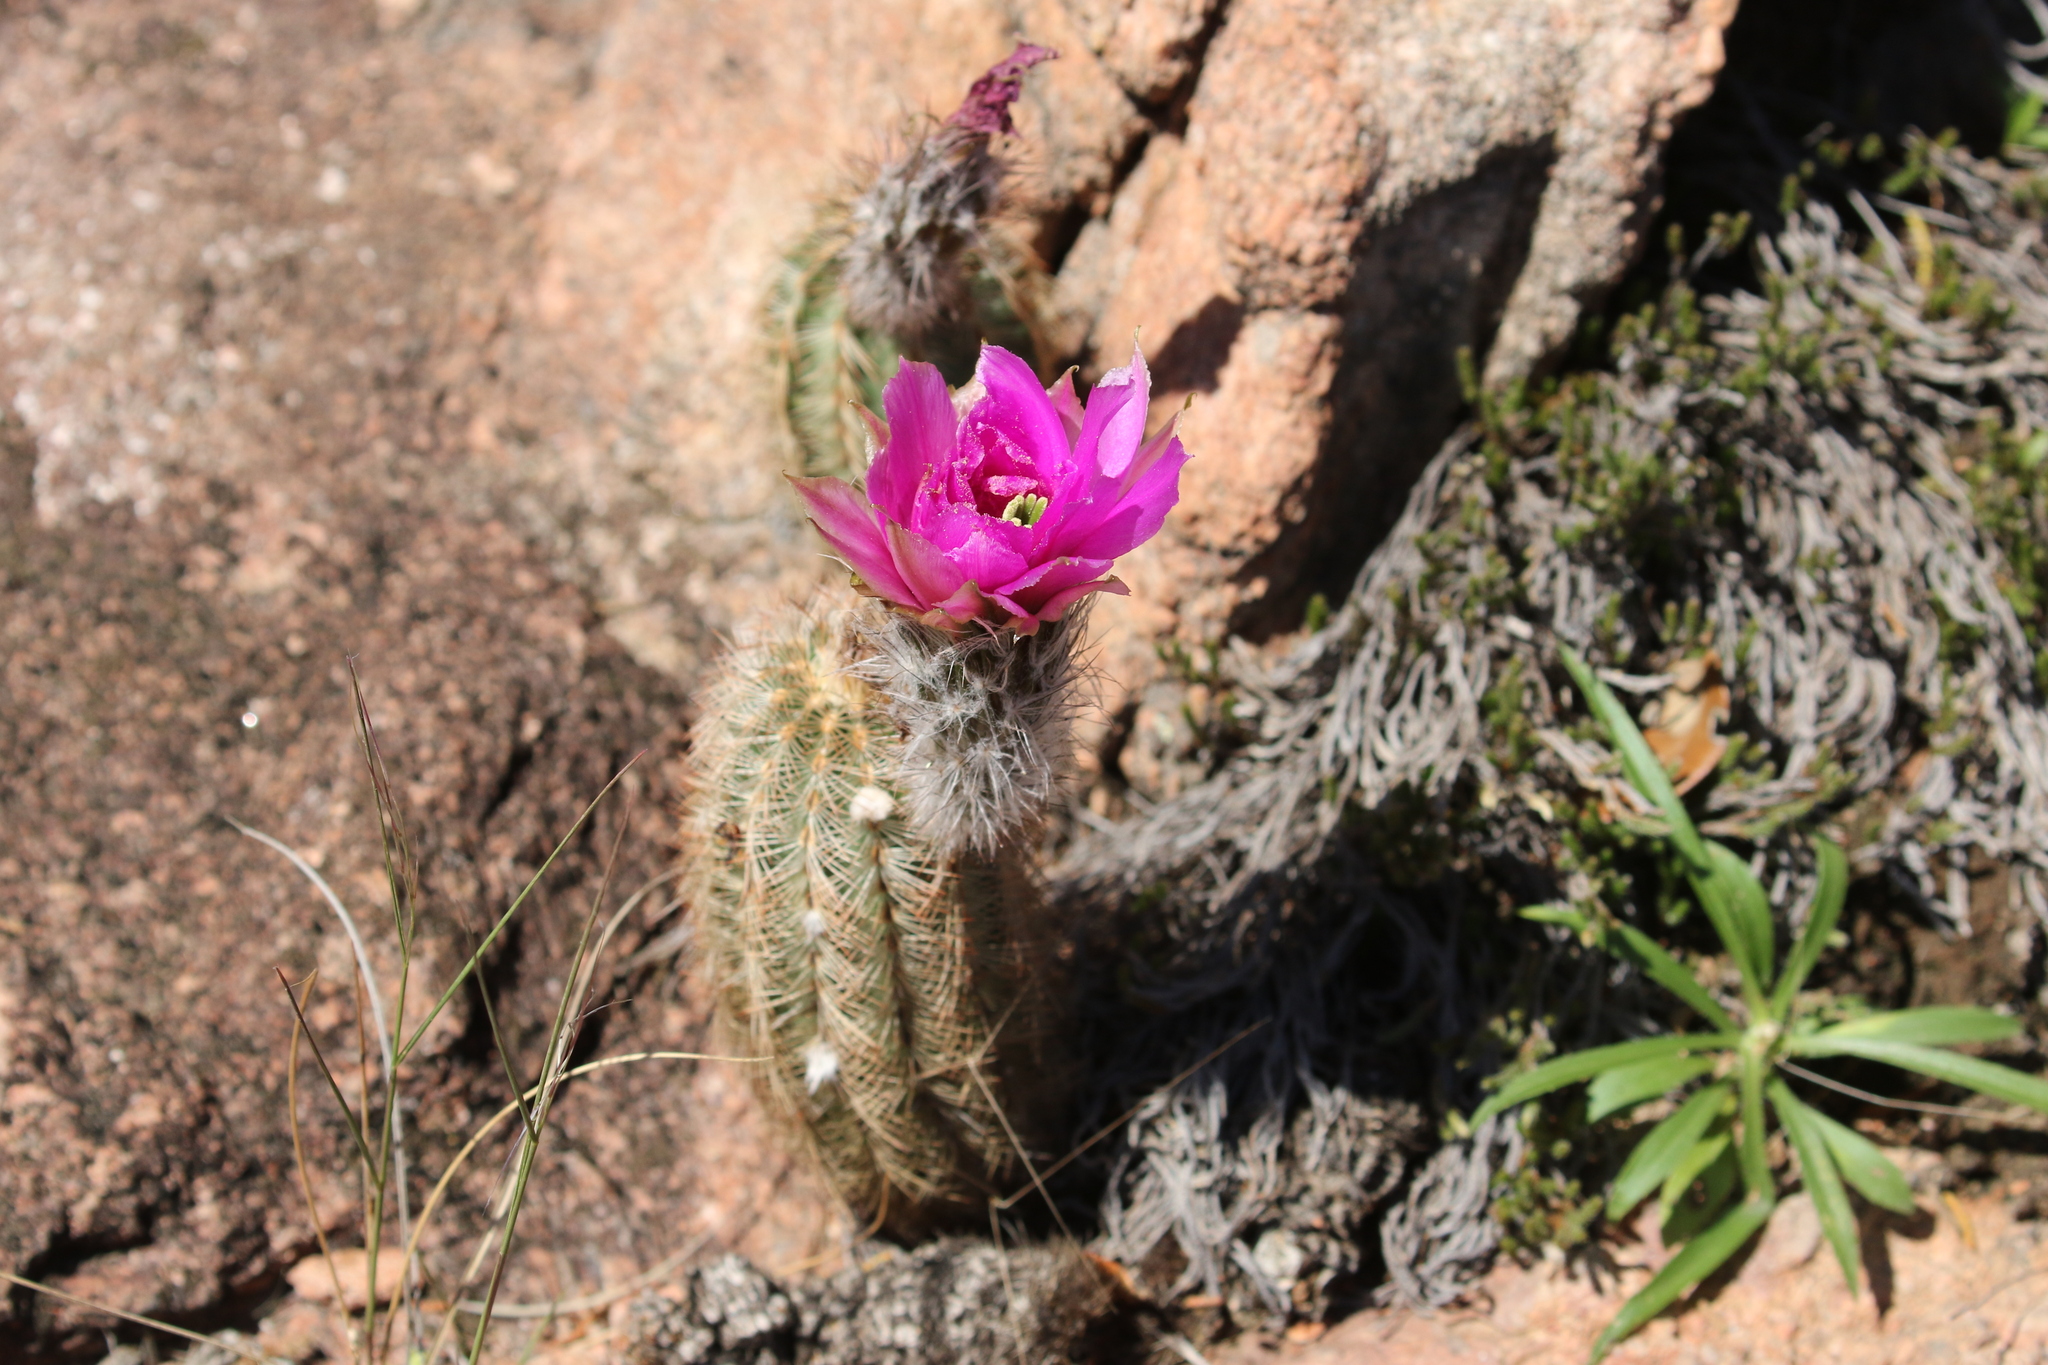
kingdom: Plantae
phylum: Tracheophyta
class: Magnoliopsida
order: Caryophyllales
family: Cactaceae
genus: Echinocereus
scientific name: Echinocereus reichenbachii
